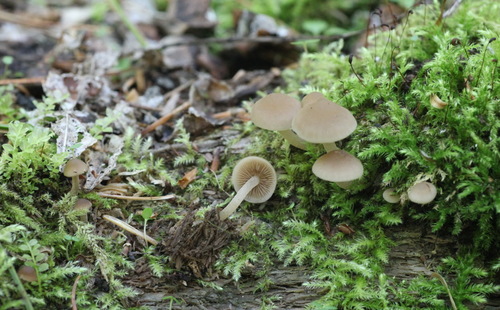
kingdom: Fungi
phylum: Basidiomycota
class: Agaricomycetes
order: Agaricales
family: Psathyrellaceae
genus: Psathyrella
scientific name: Psathyrella pygmaea
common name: Pygmy brittlestem
